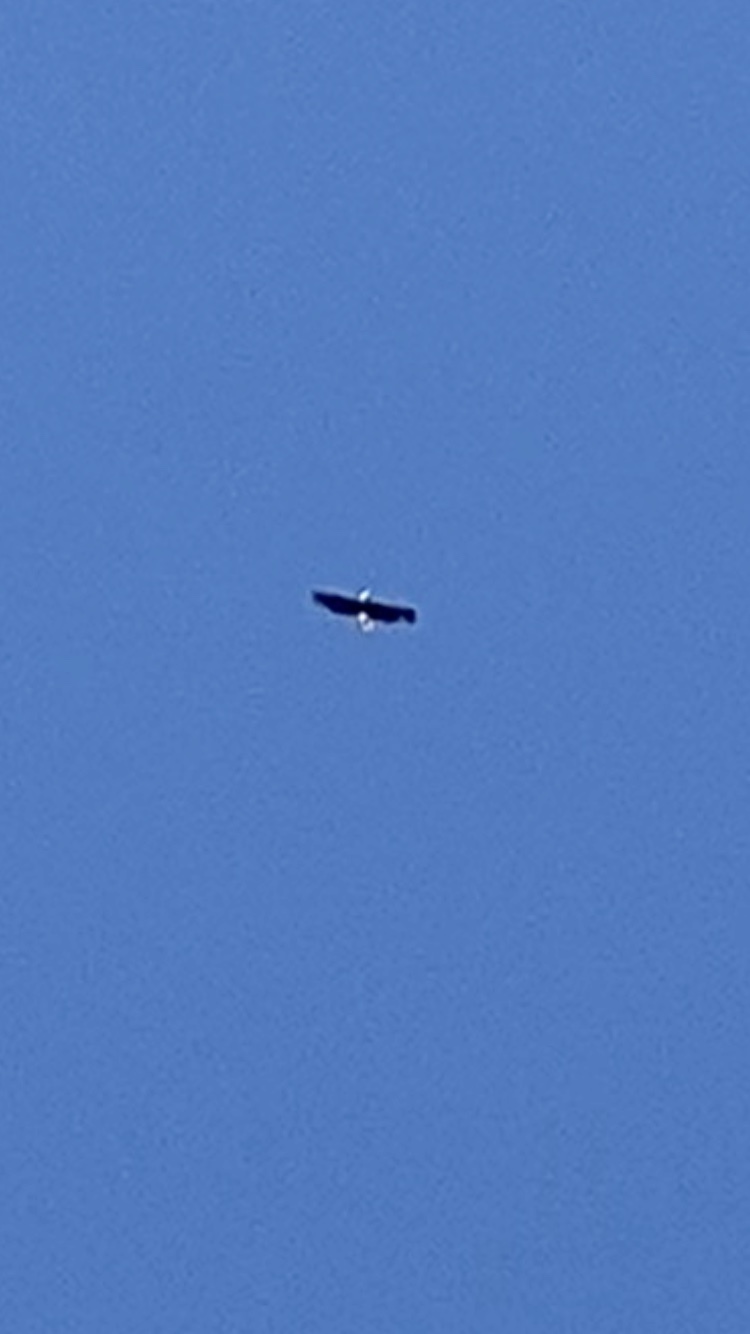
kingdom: Animalia
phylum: Chordata
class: Aves
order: Accipitriformes
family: Accipitridae
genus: Haliaeetus
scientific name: Haliaeetus leucocephalus
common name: Bald eagle
